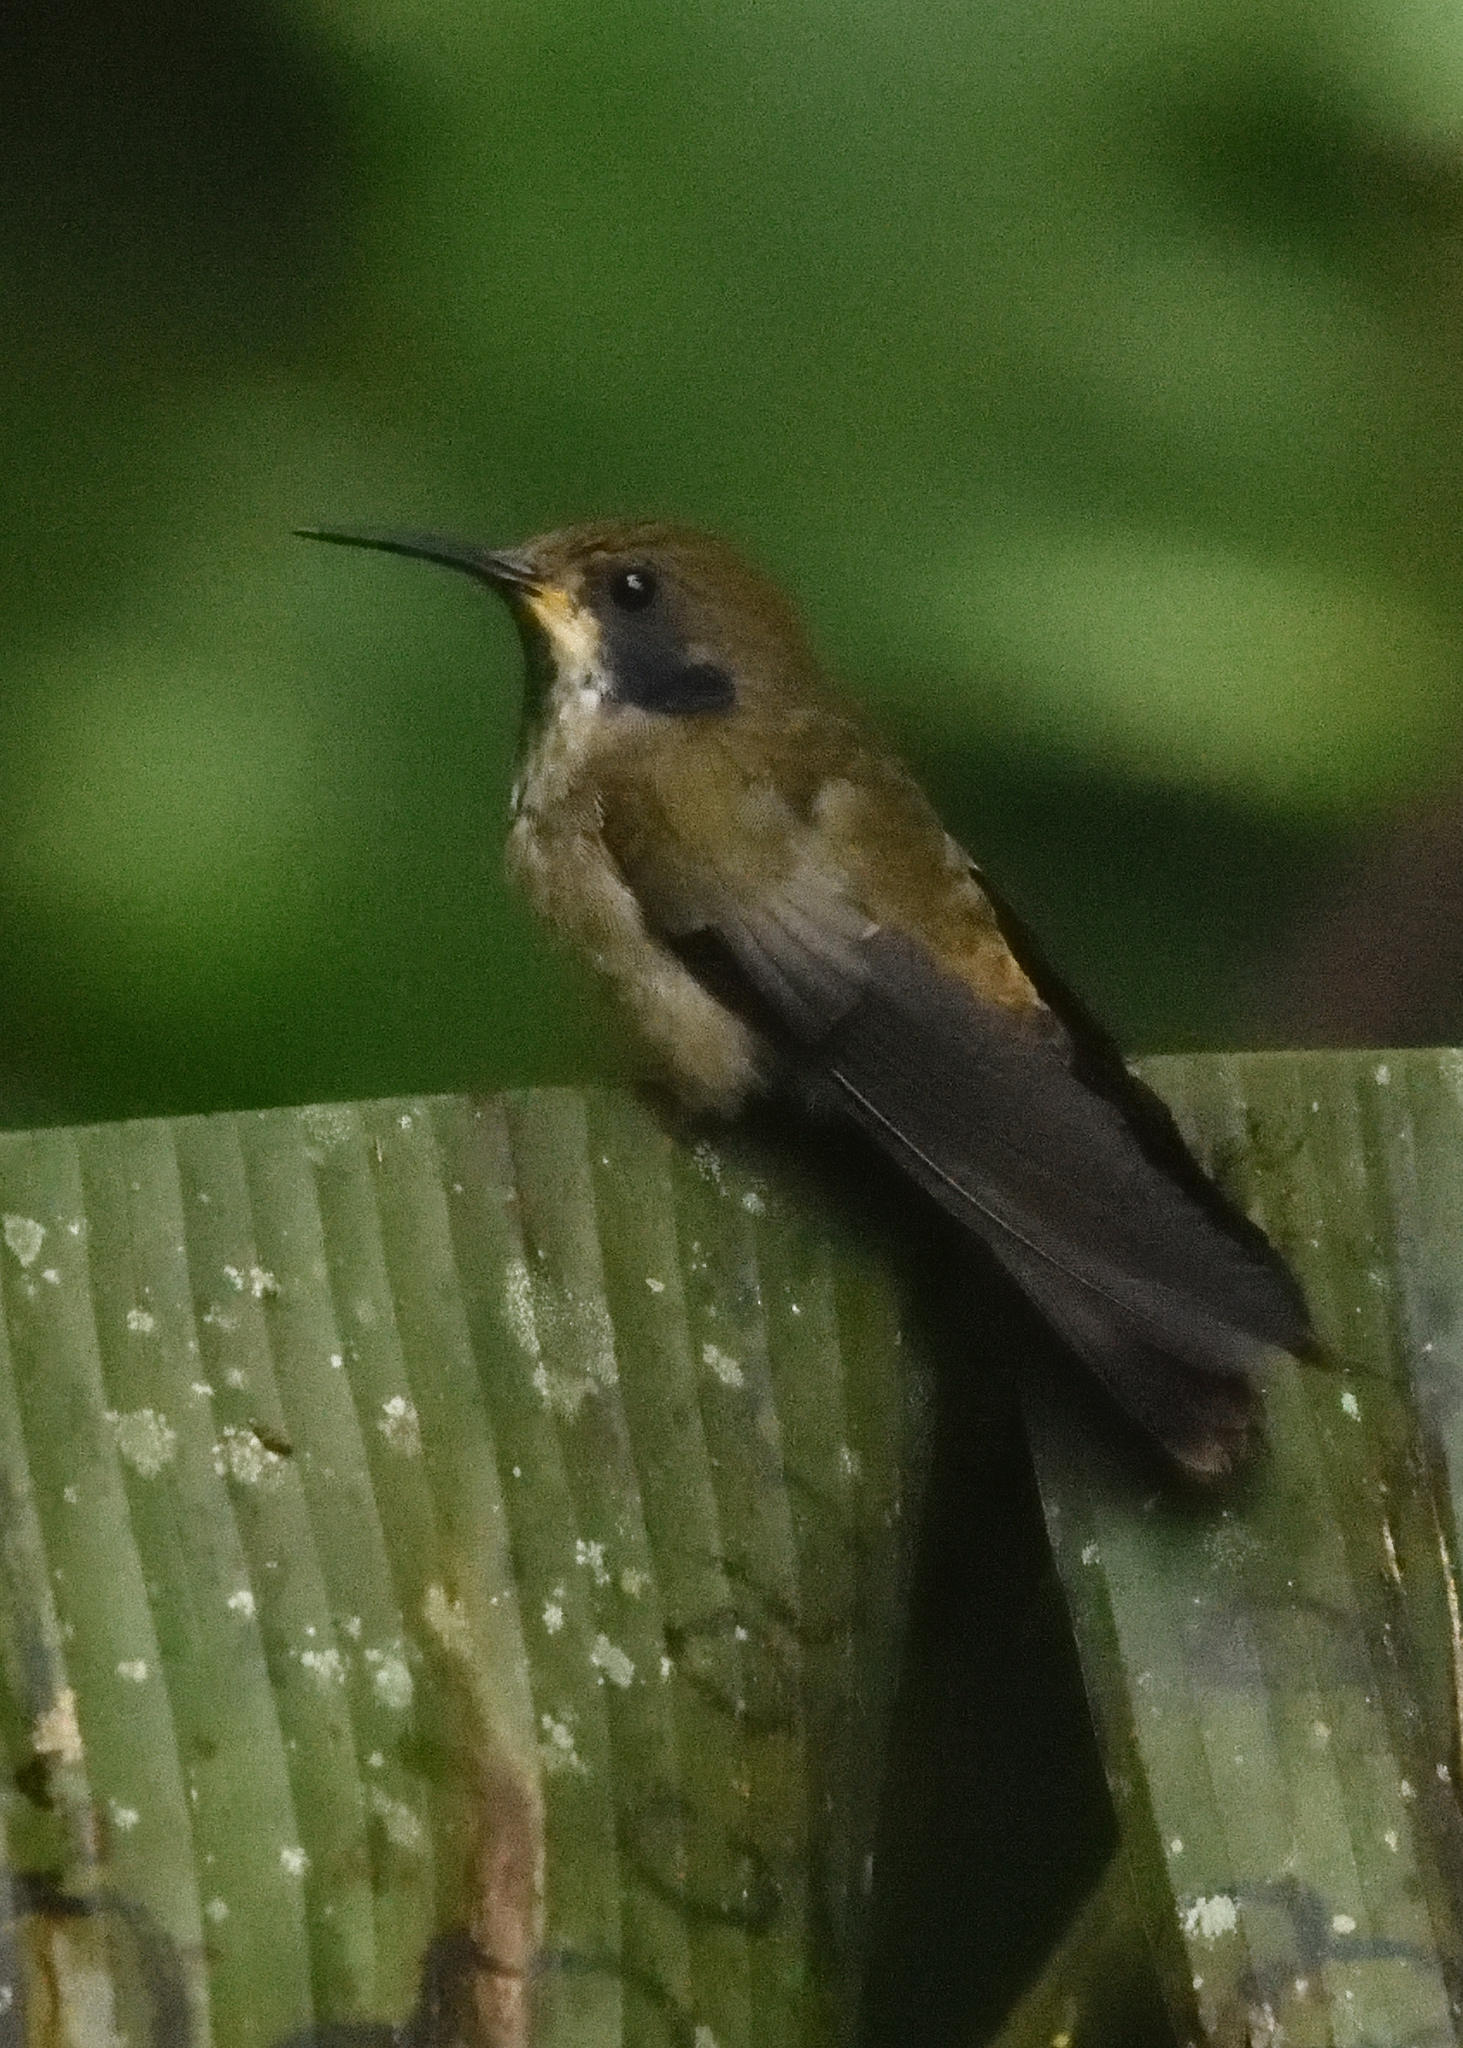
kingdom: Animalia
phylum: Chordata
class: Aves
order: Apodiformes
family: Trochilidae
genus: Colibri
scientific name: Colibri delphinae
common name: Brown violetear
